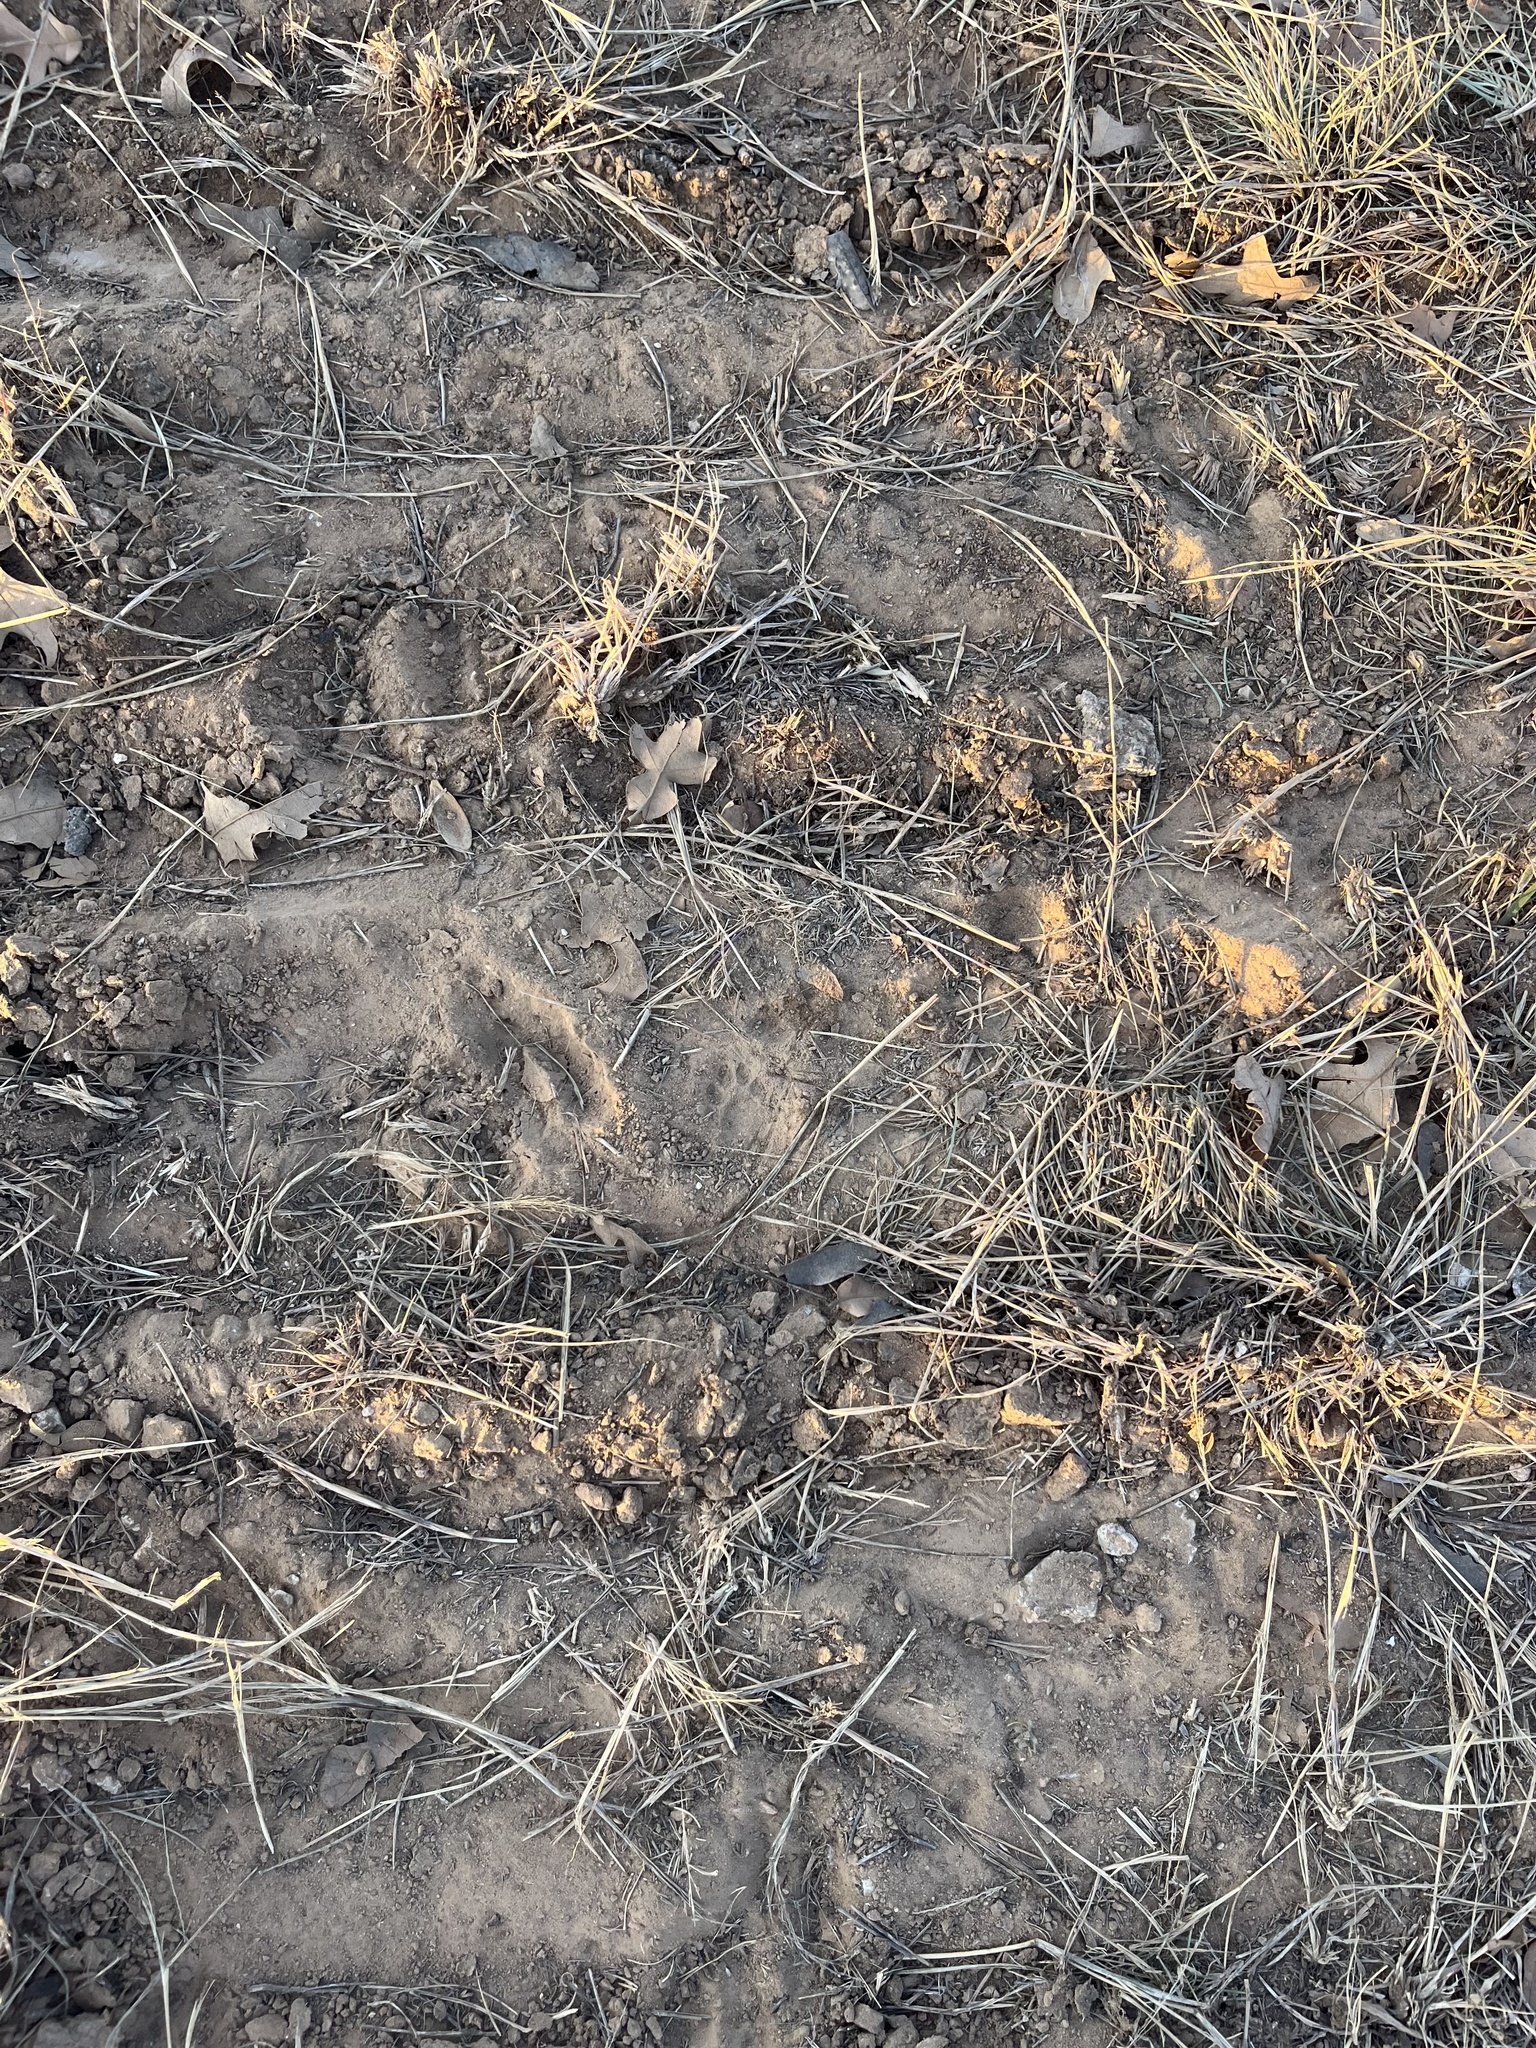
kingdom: Animalia
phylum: Chordata
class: Mammalia
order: Carnivora
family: Procyonidae
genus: Bassariscus
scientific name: Bassariscus astutus
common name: Ringtail
